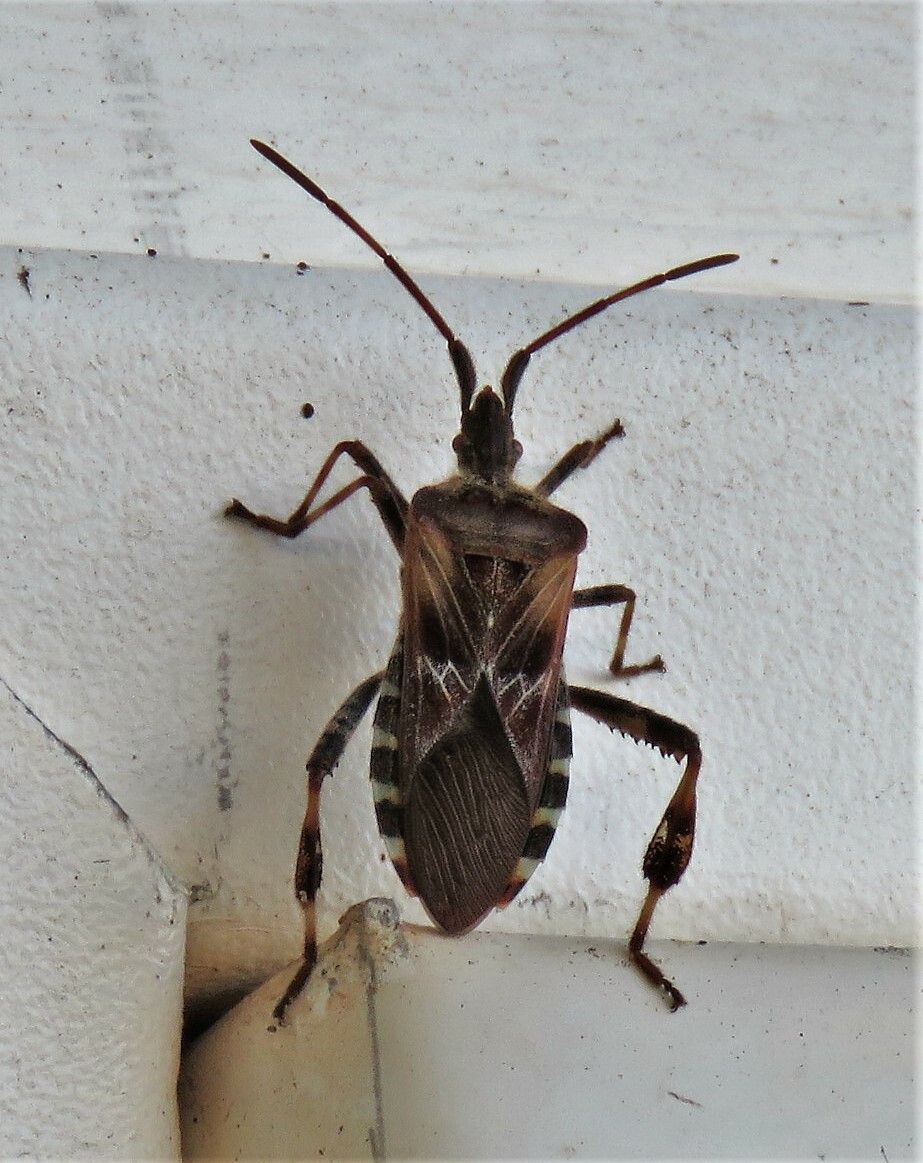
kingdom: Animalia
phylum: Arthropoda
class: Insecta
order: Hemiptera
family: Coreidae
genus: Leptoglossus
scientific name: Leptoglossus occidentalis
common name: Western conifer-seed bug
